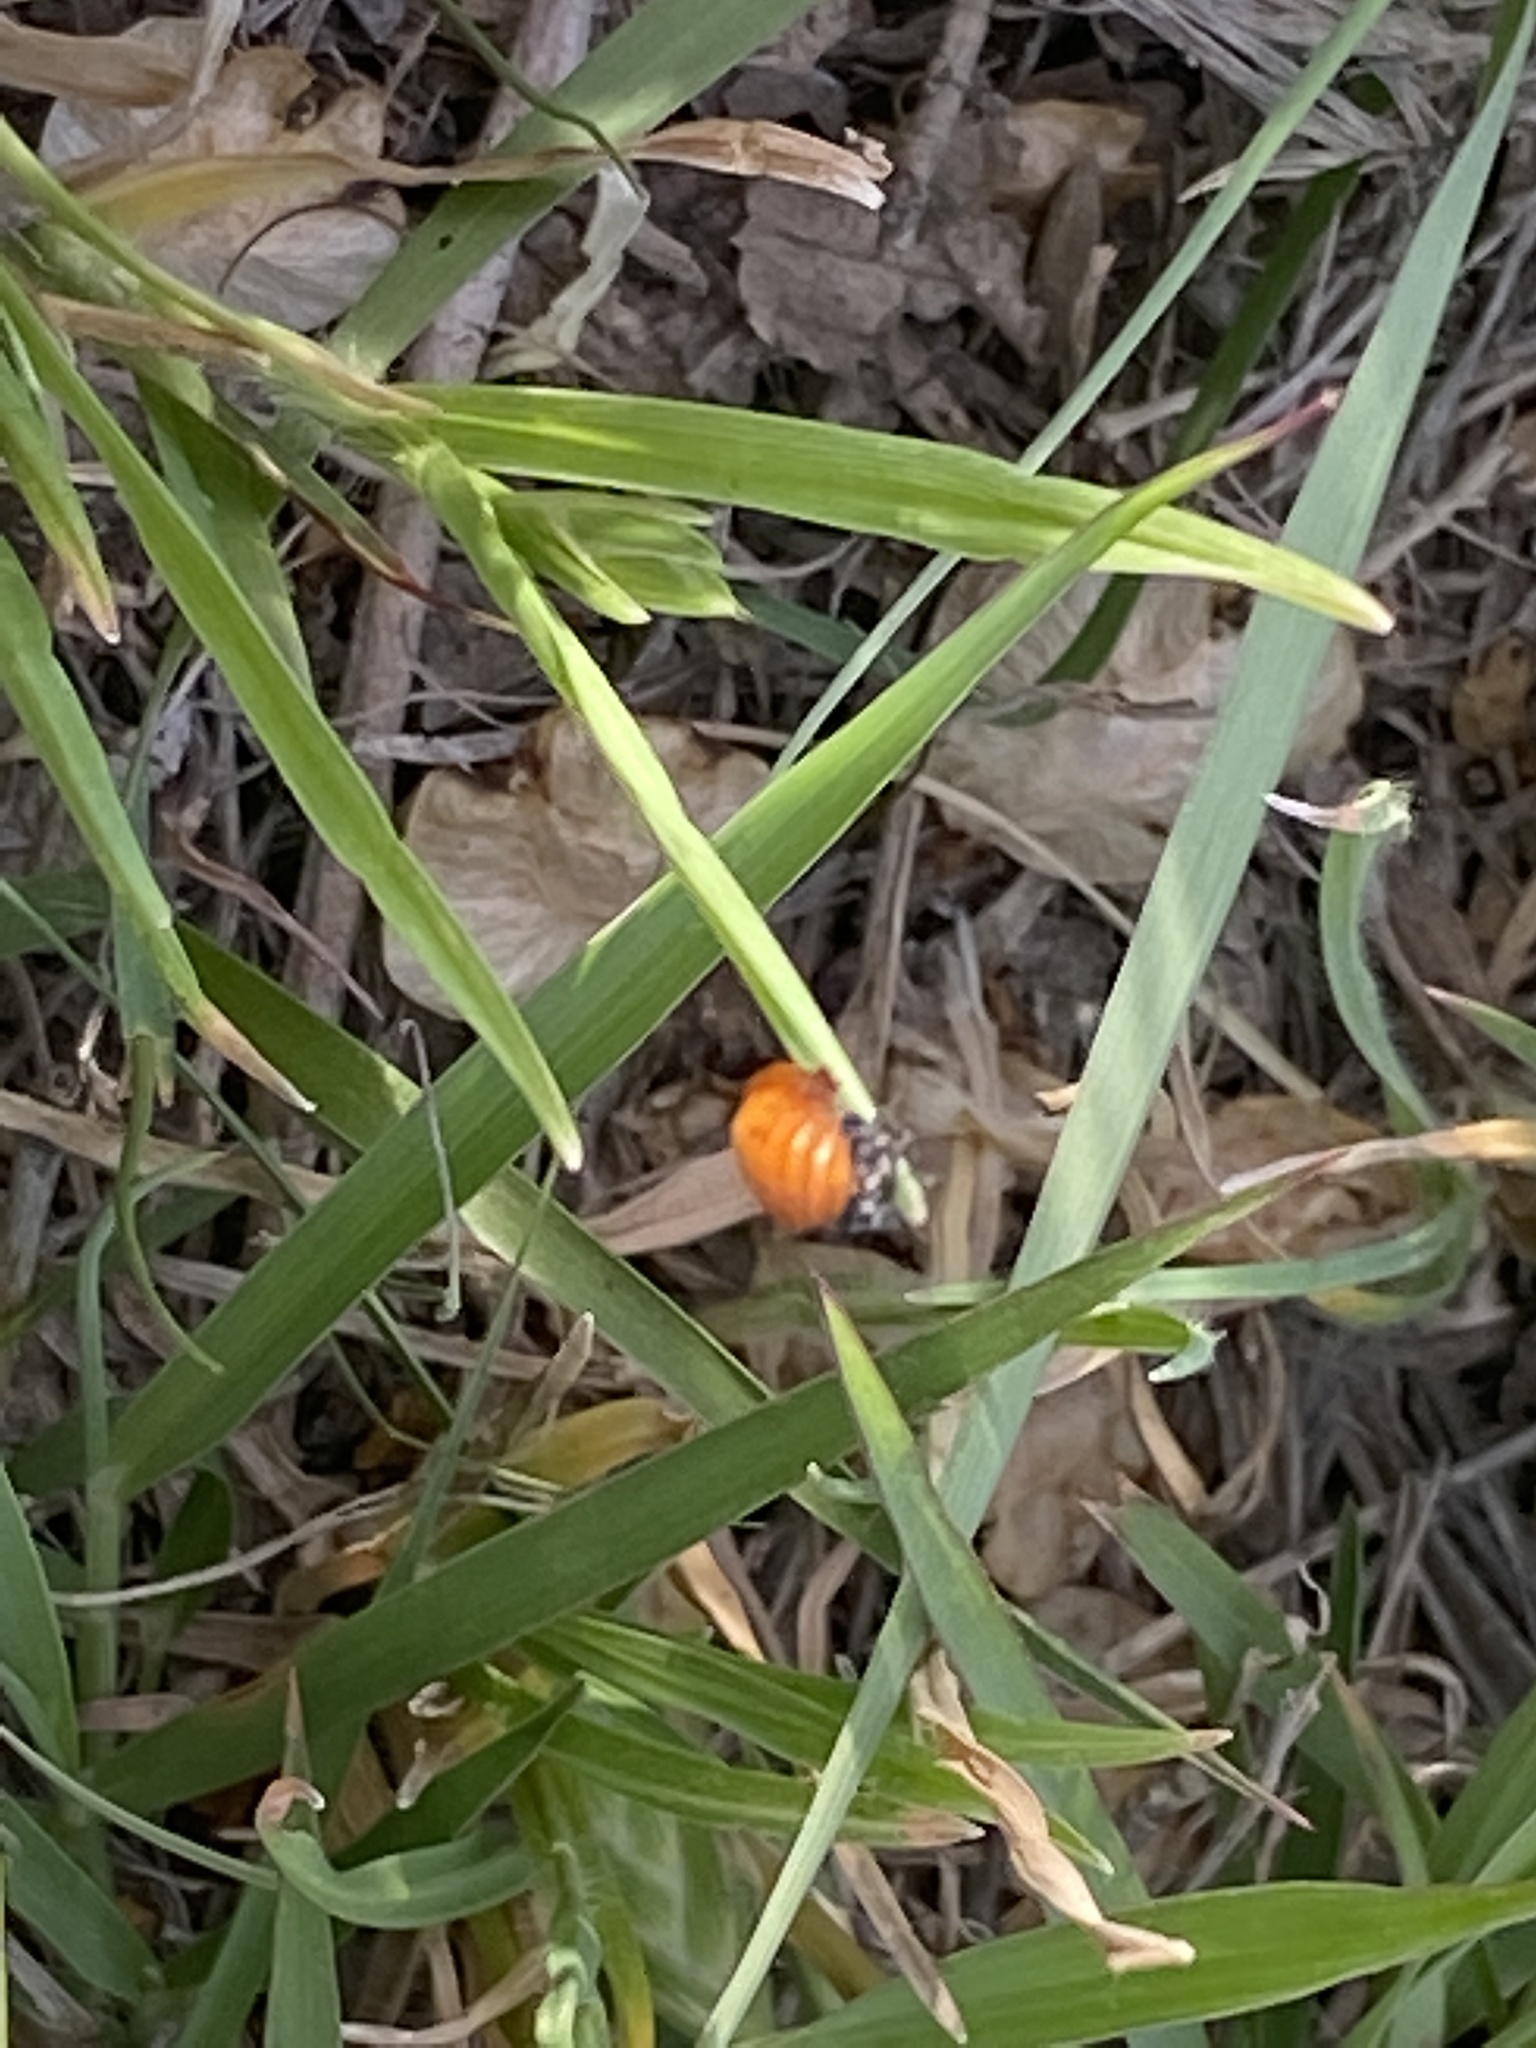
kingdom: Animalia
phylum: Arthropoda
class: Insecta
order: Coleoptera
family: Coccinellidae
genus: Hippodamia
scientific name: Hippodamia convergens
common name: Convergent lady beetle
